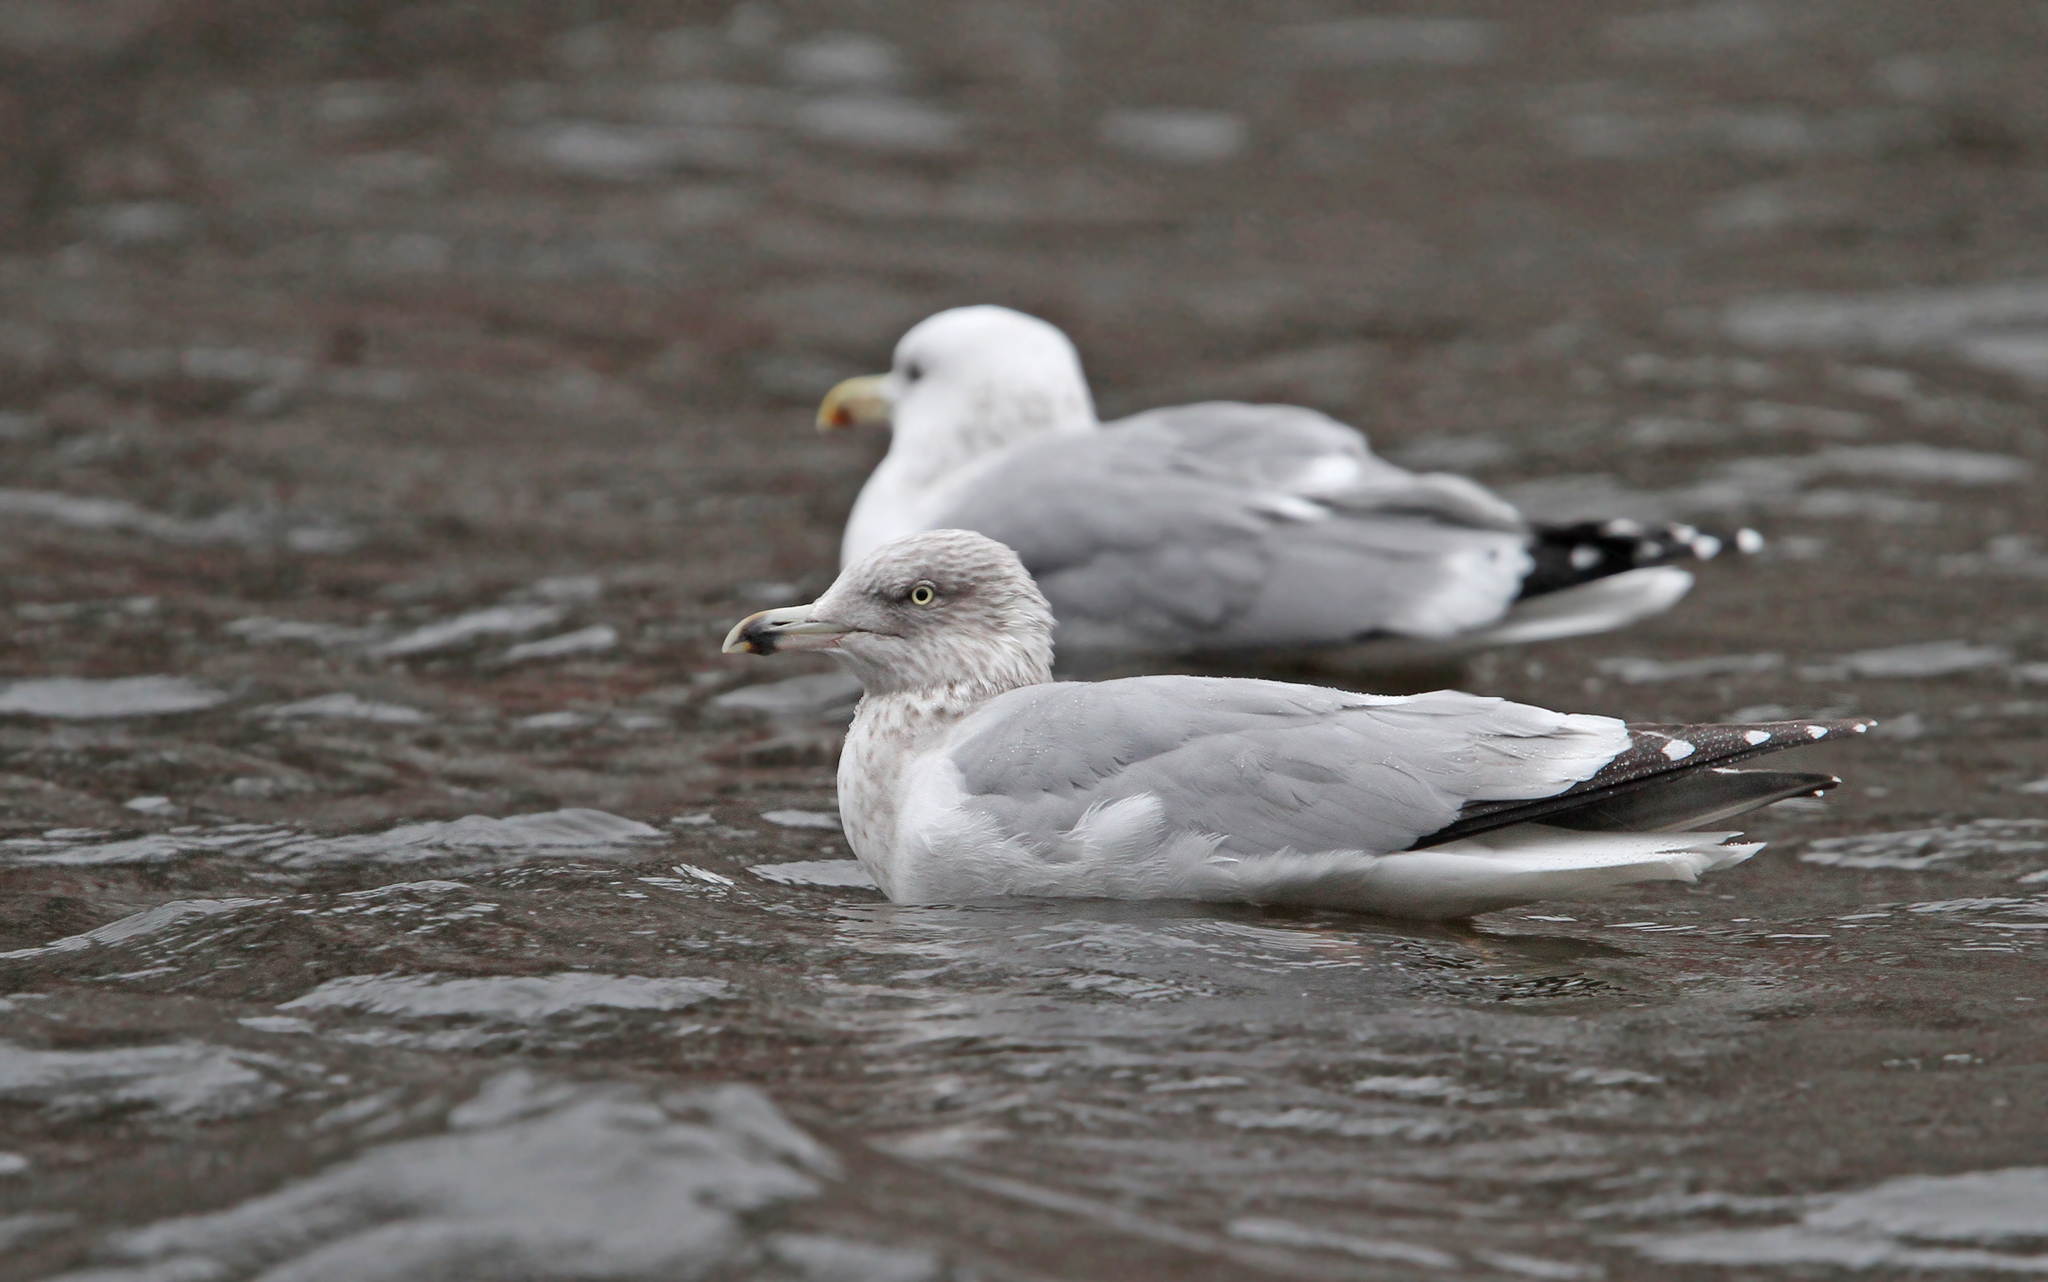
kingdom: Animalia
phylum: Chordata
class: Aves
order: Charadriiformes
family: Laridae
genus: Larus
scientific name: Larus argentatus
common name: Herring gull
